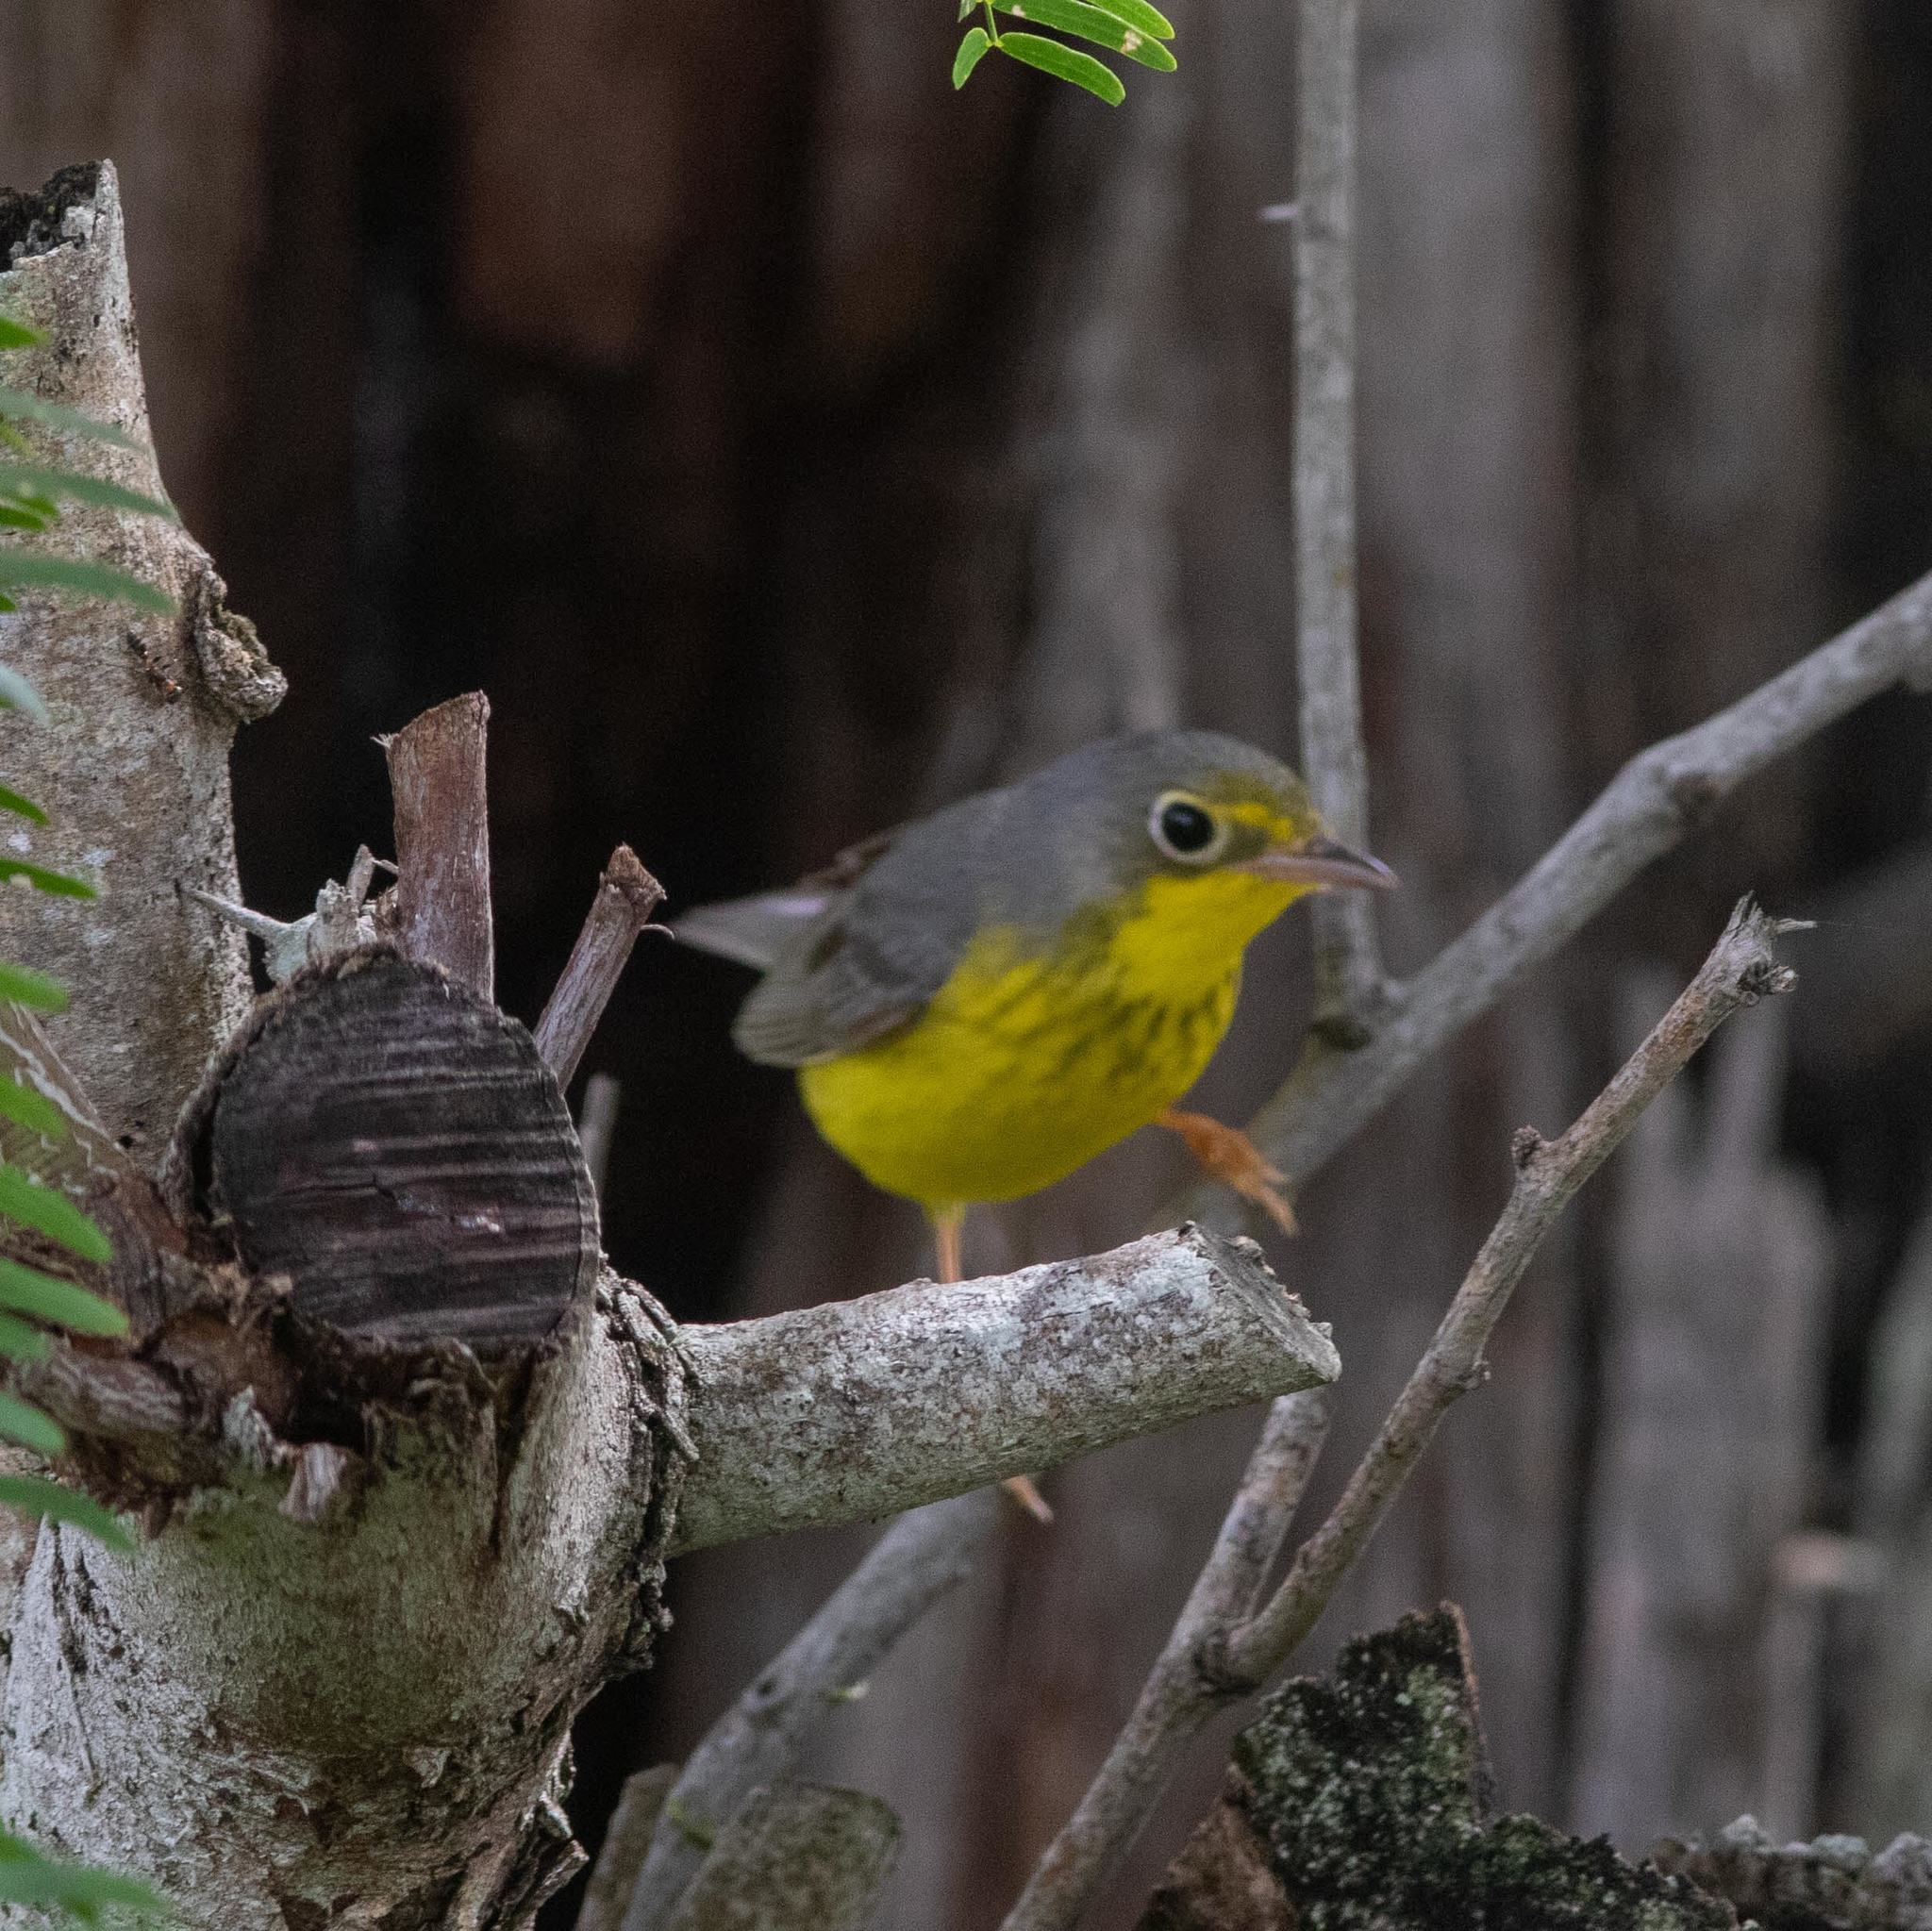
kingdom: Animalia
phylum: Chordata
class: Aves
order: Passeriformes
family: Parulidae
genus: Cardellina
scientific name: Cardellina canadensis
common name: Canada warbler
